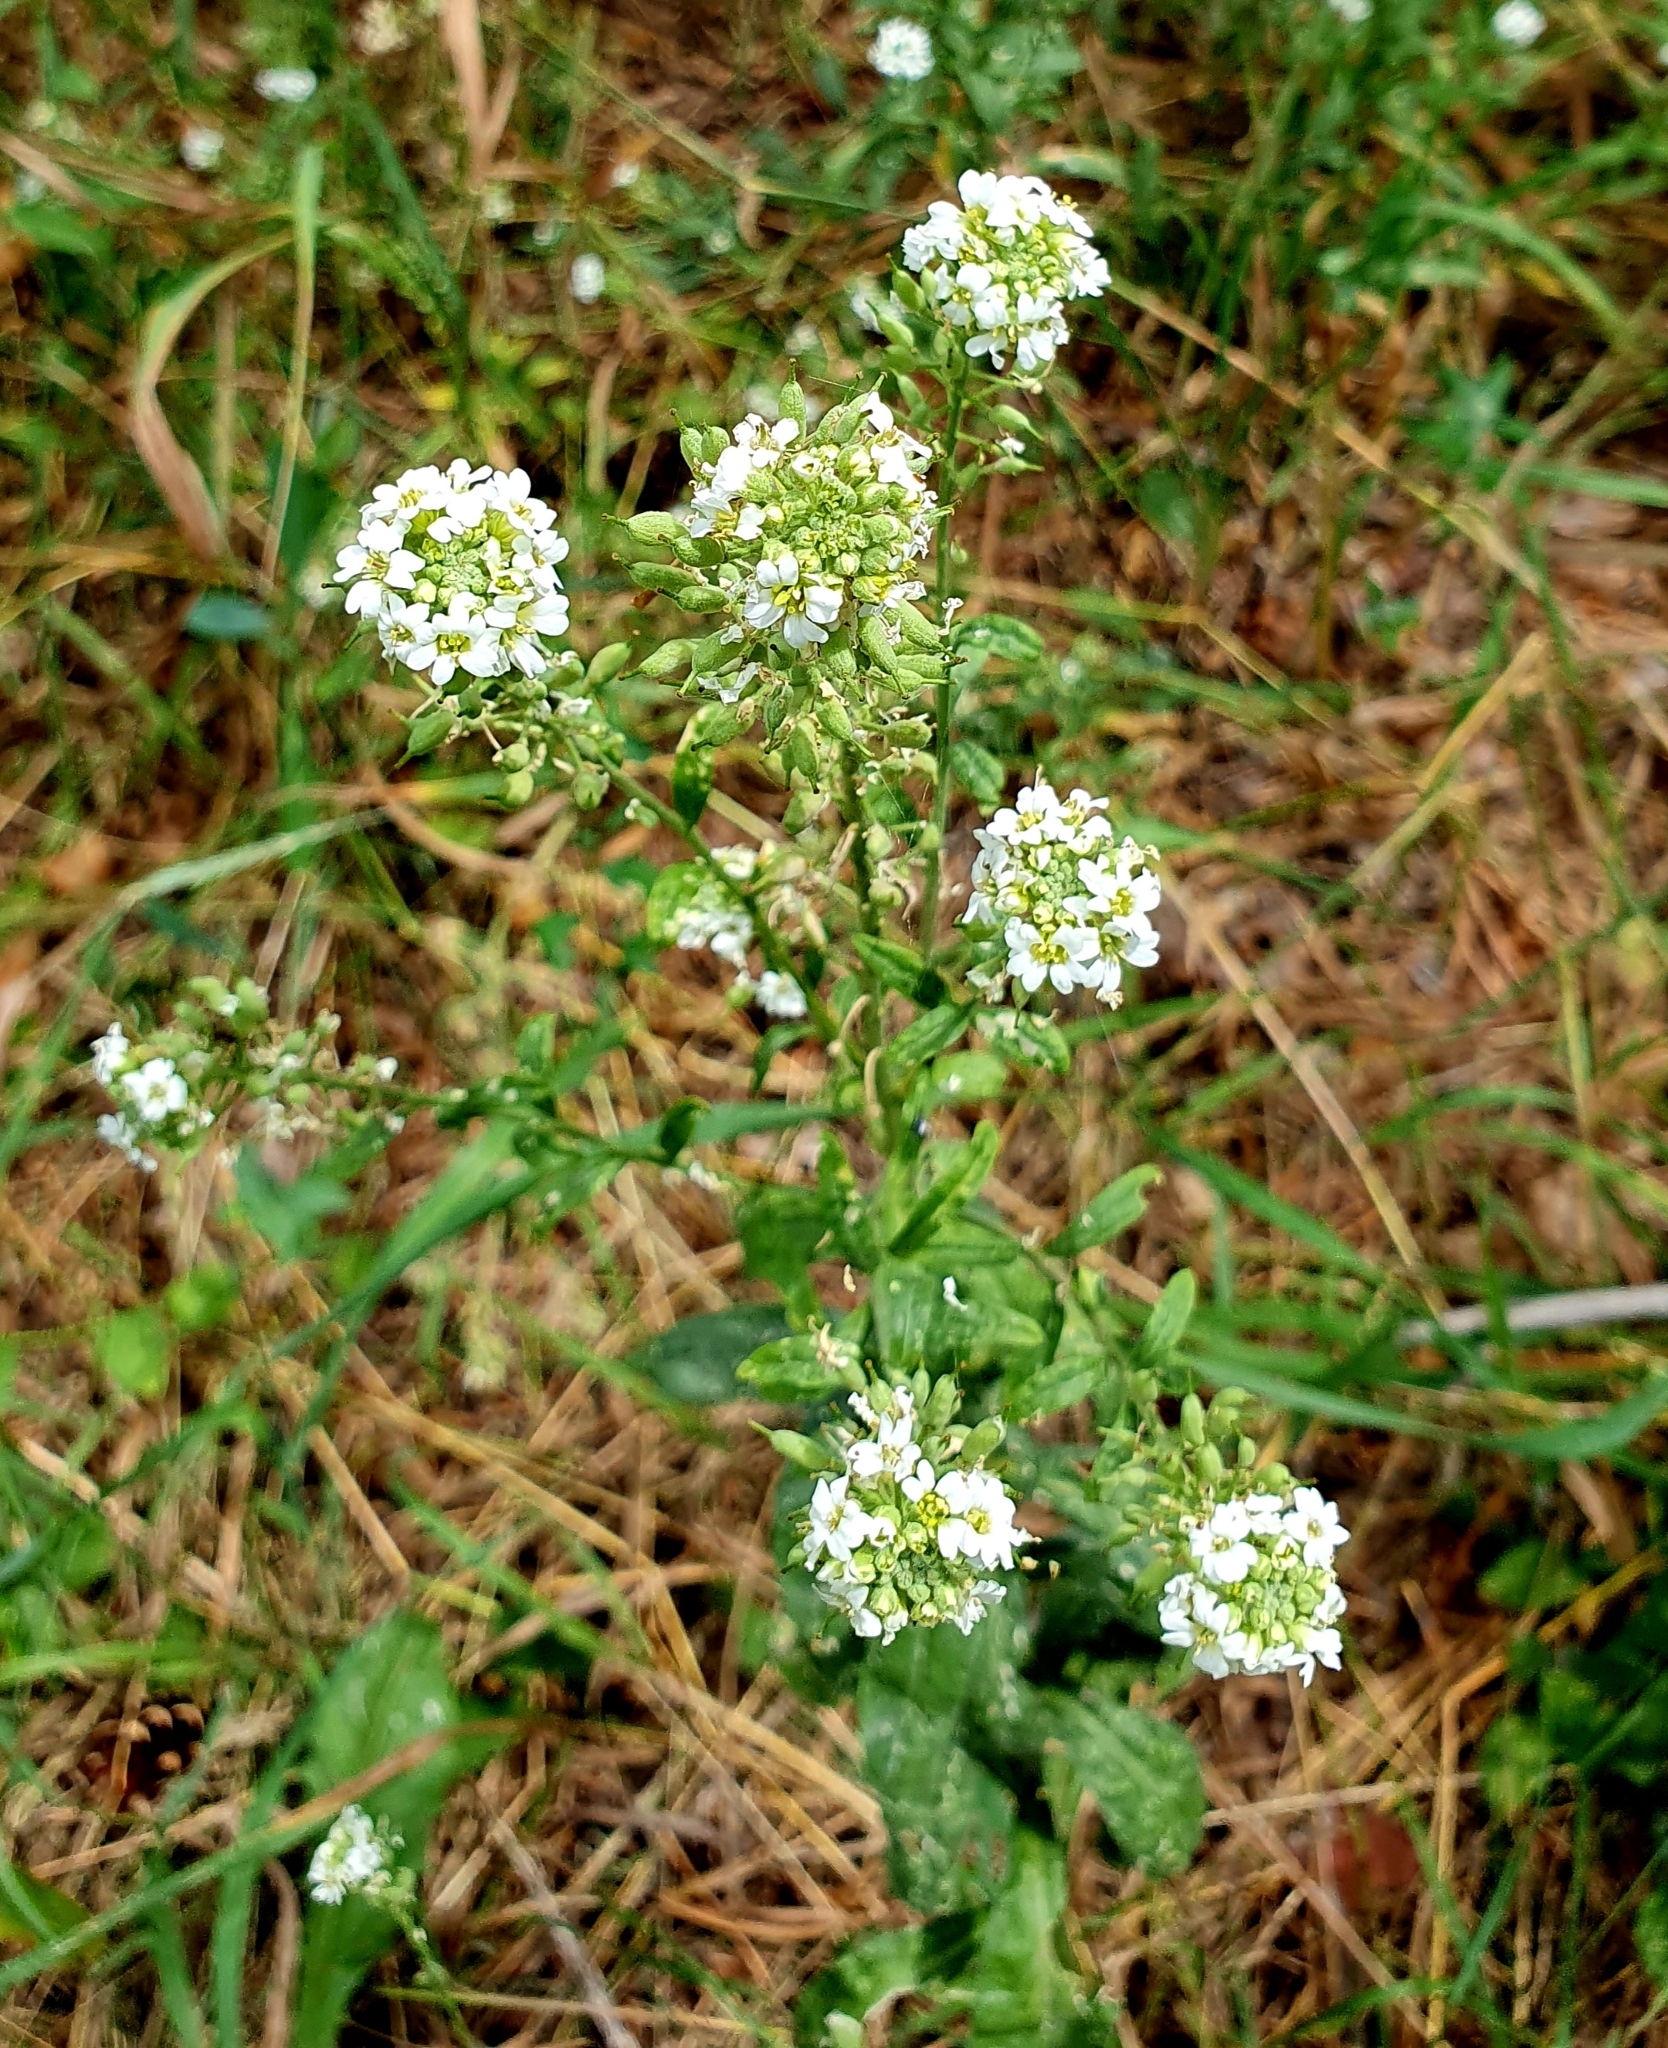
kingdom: Plantae
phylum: Tracheophyta
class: Magnoliopsida
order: Brassicales
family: Brassicaceae
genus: Berteroa
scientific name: Berteroa incana
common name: Hoary alison
